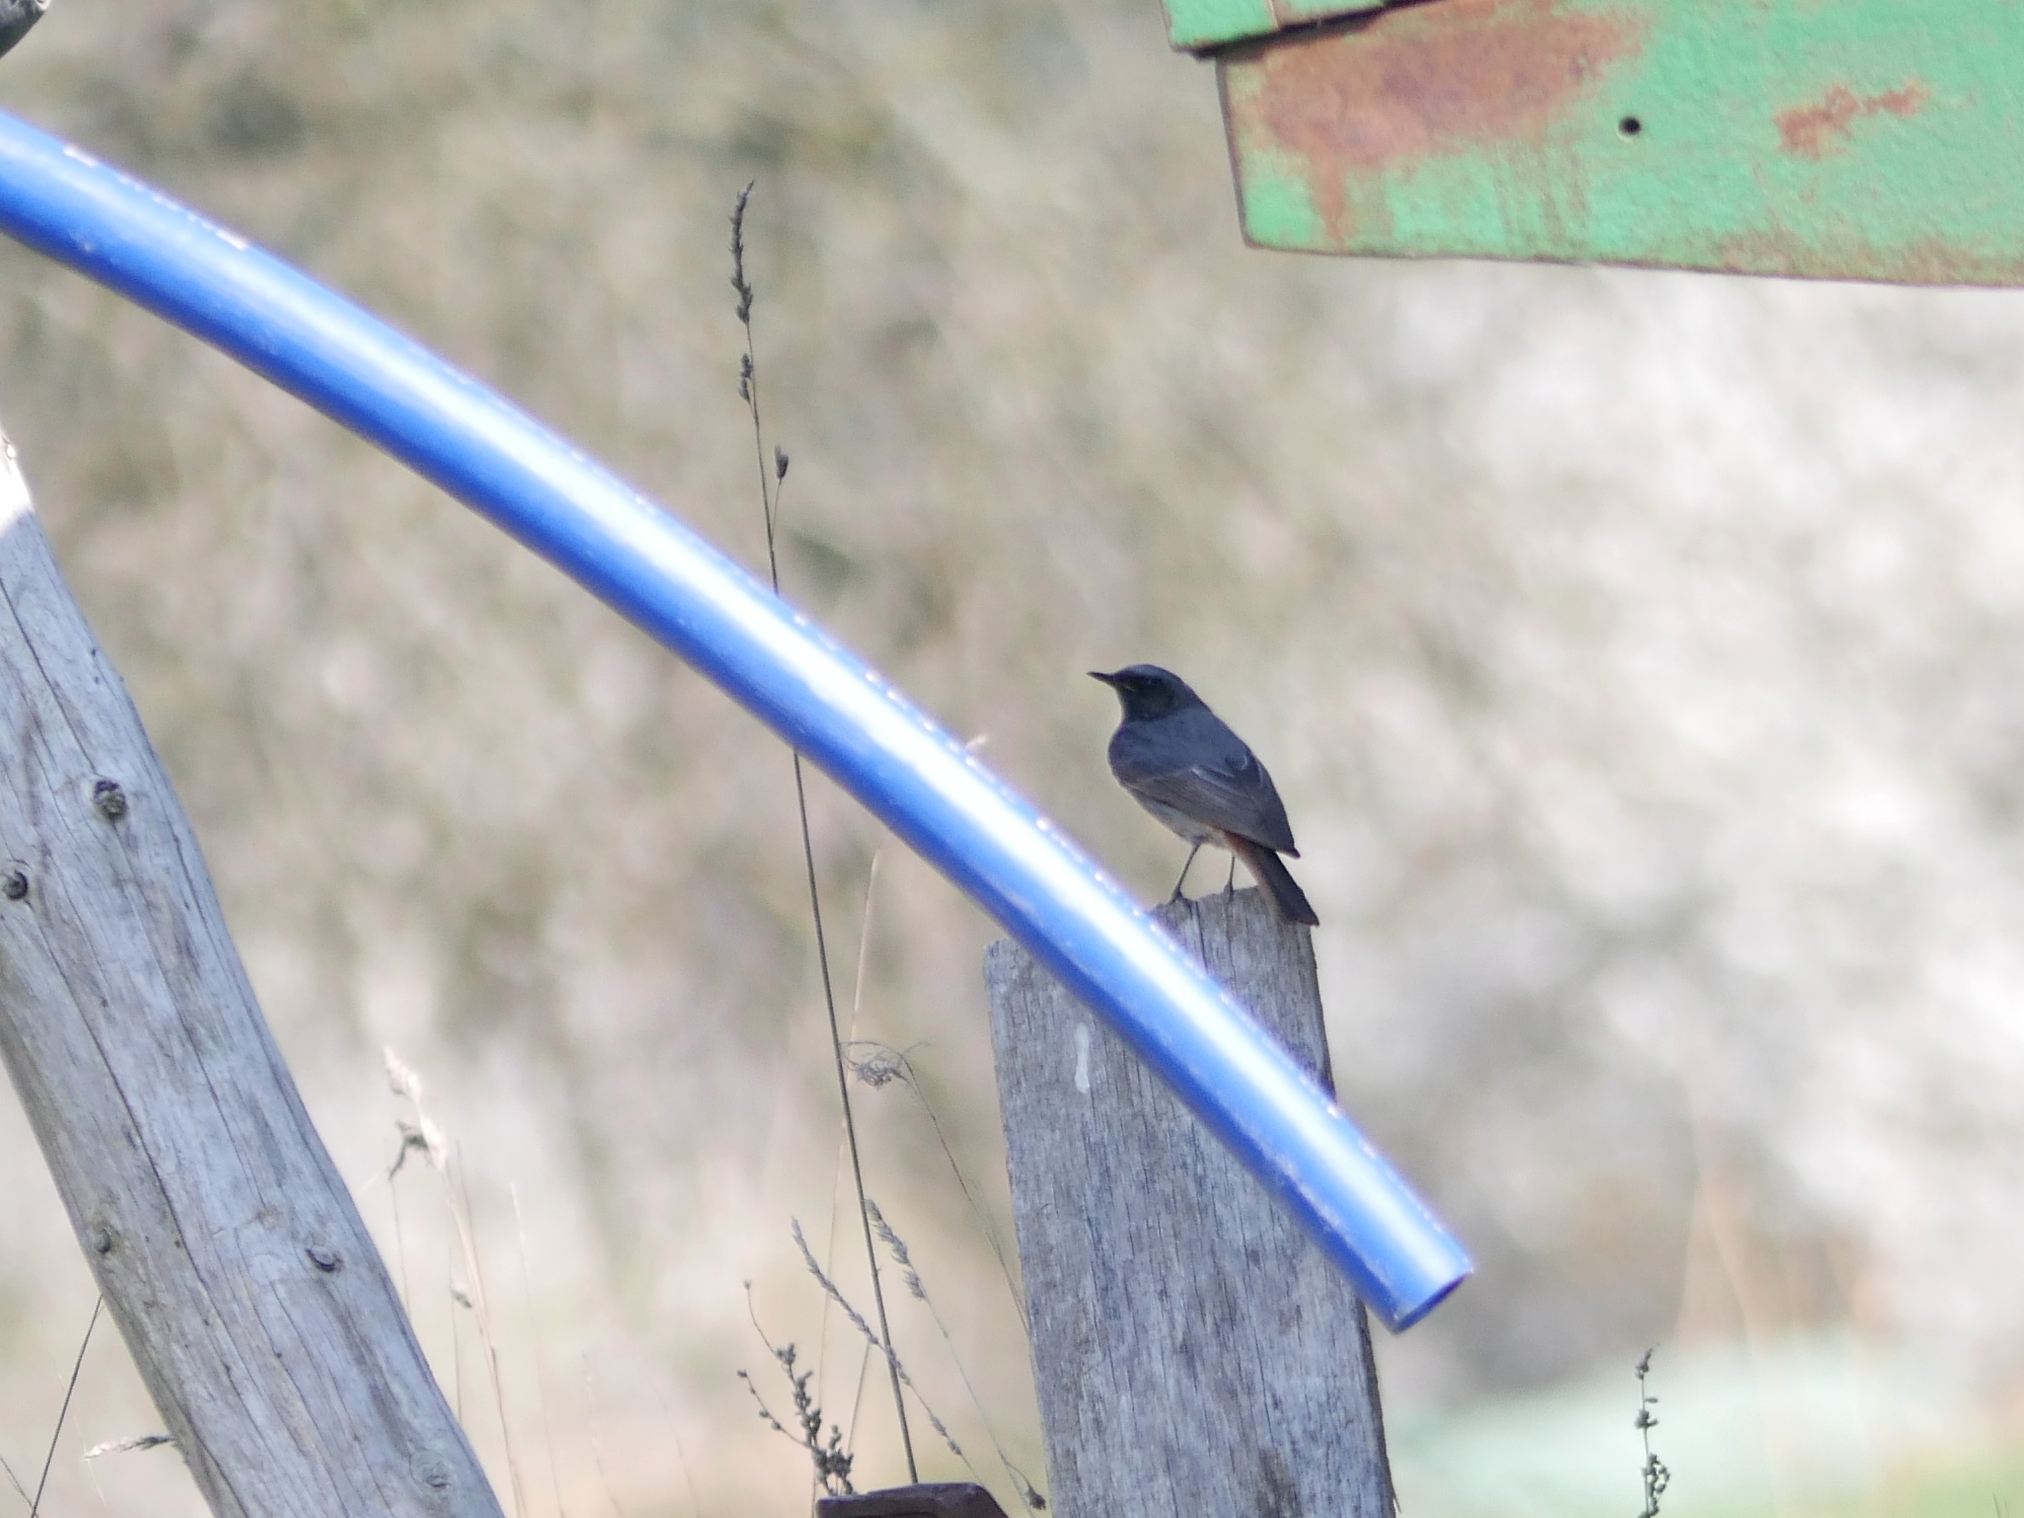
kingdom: Animalia
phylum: Chordata
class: Aves
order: Passeriformes
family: Muscicapidae
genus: Phoenicurus
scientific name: Phoenicurus ochruros
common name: Black redstart
